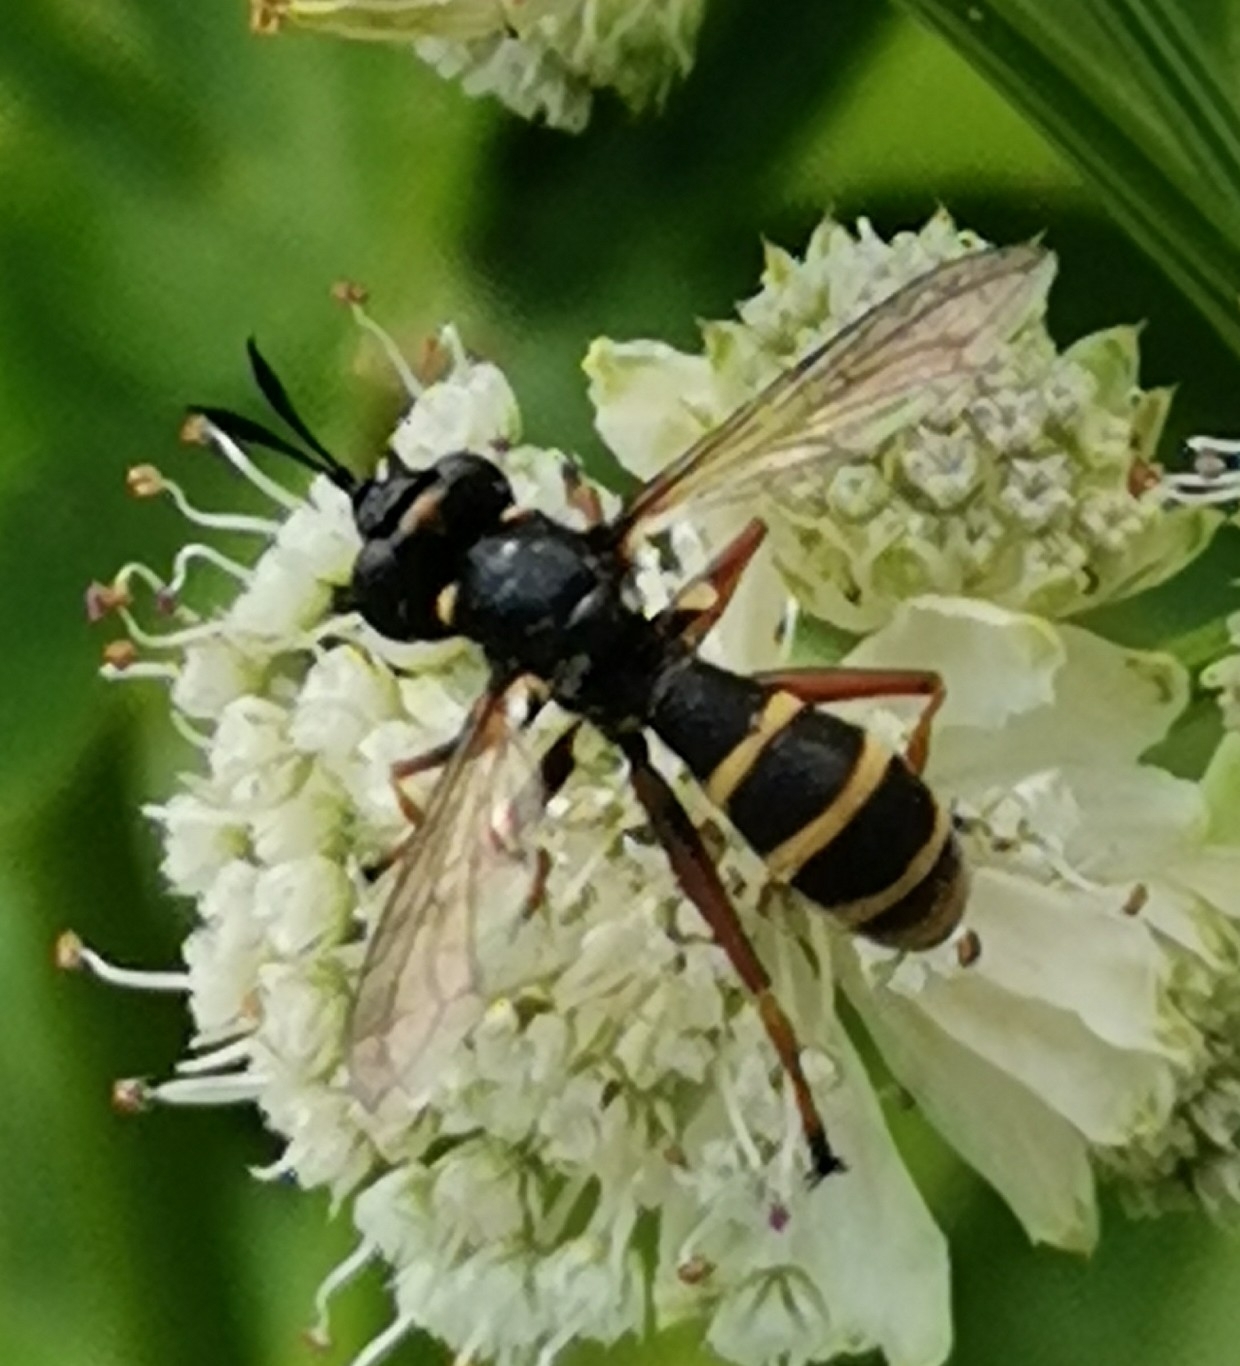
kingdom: Animalia
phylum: Arthropoda
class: Insecta
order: Diptera
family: Conopidae
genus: Conops
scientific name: Conops quadrifasciatus
